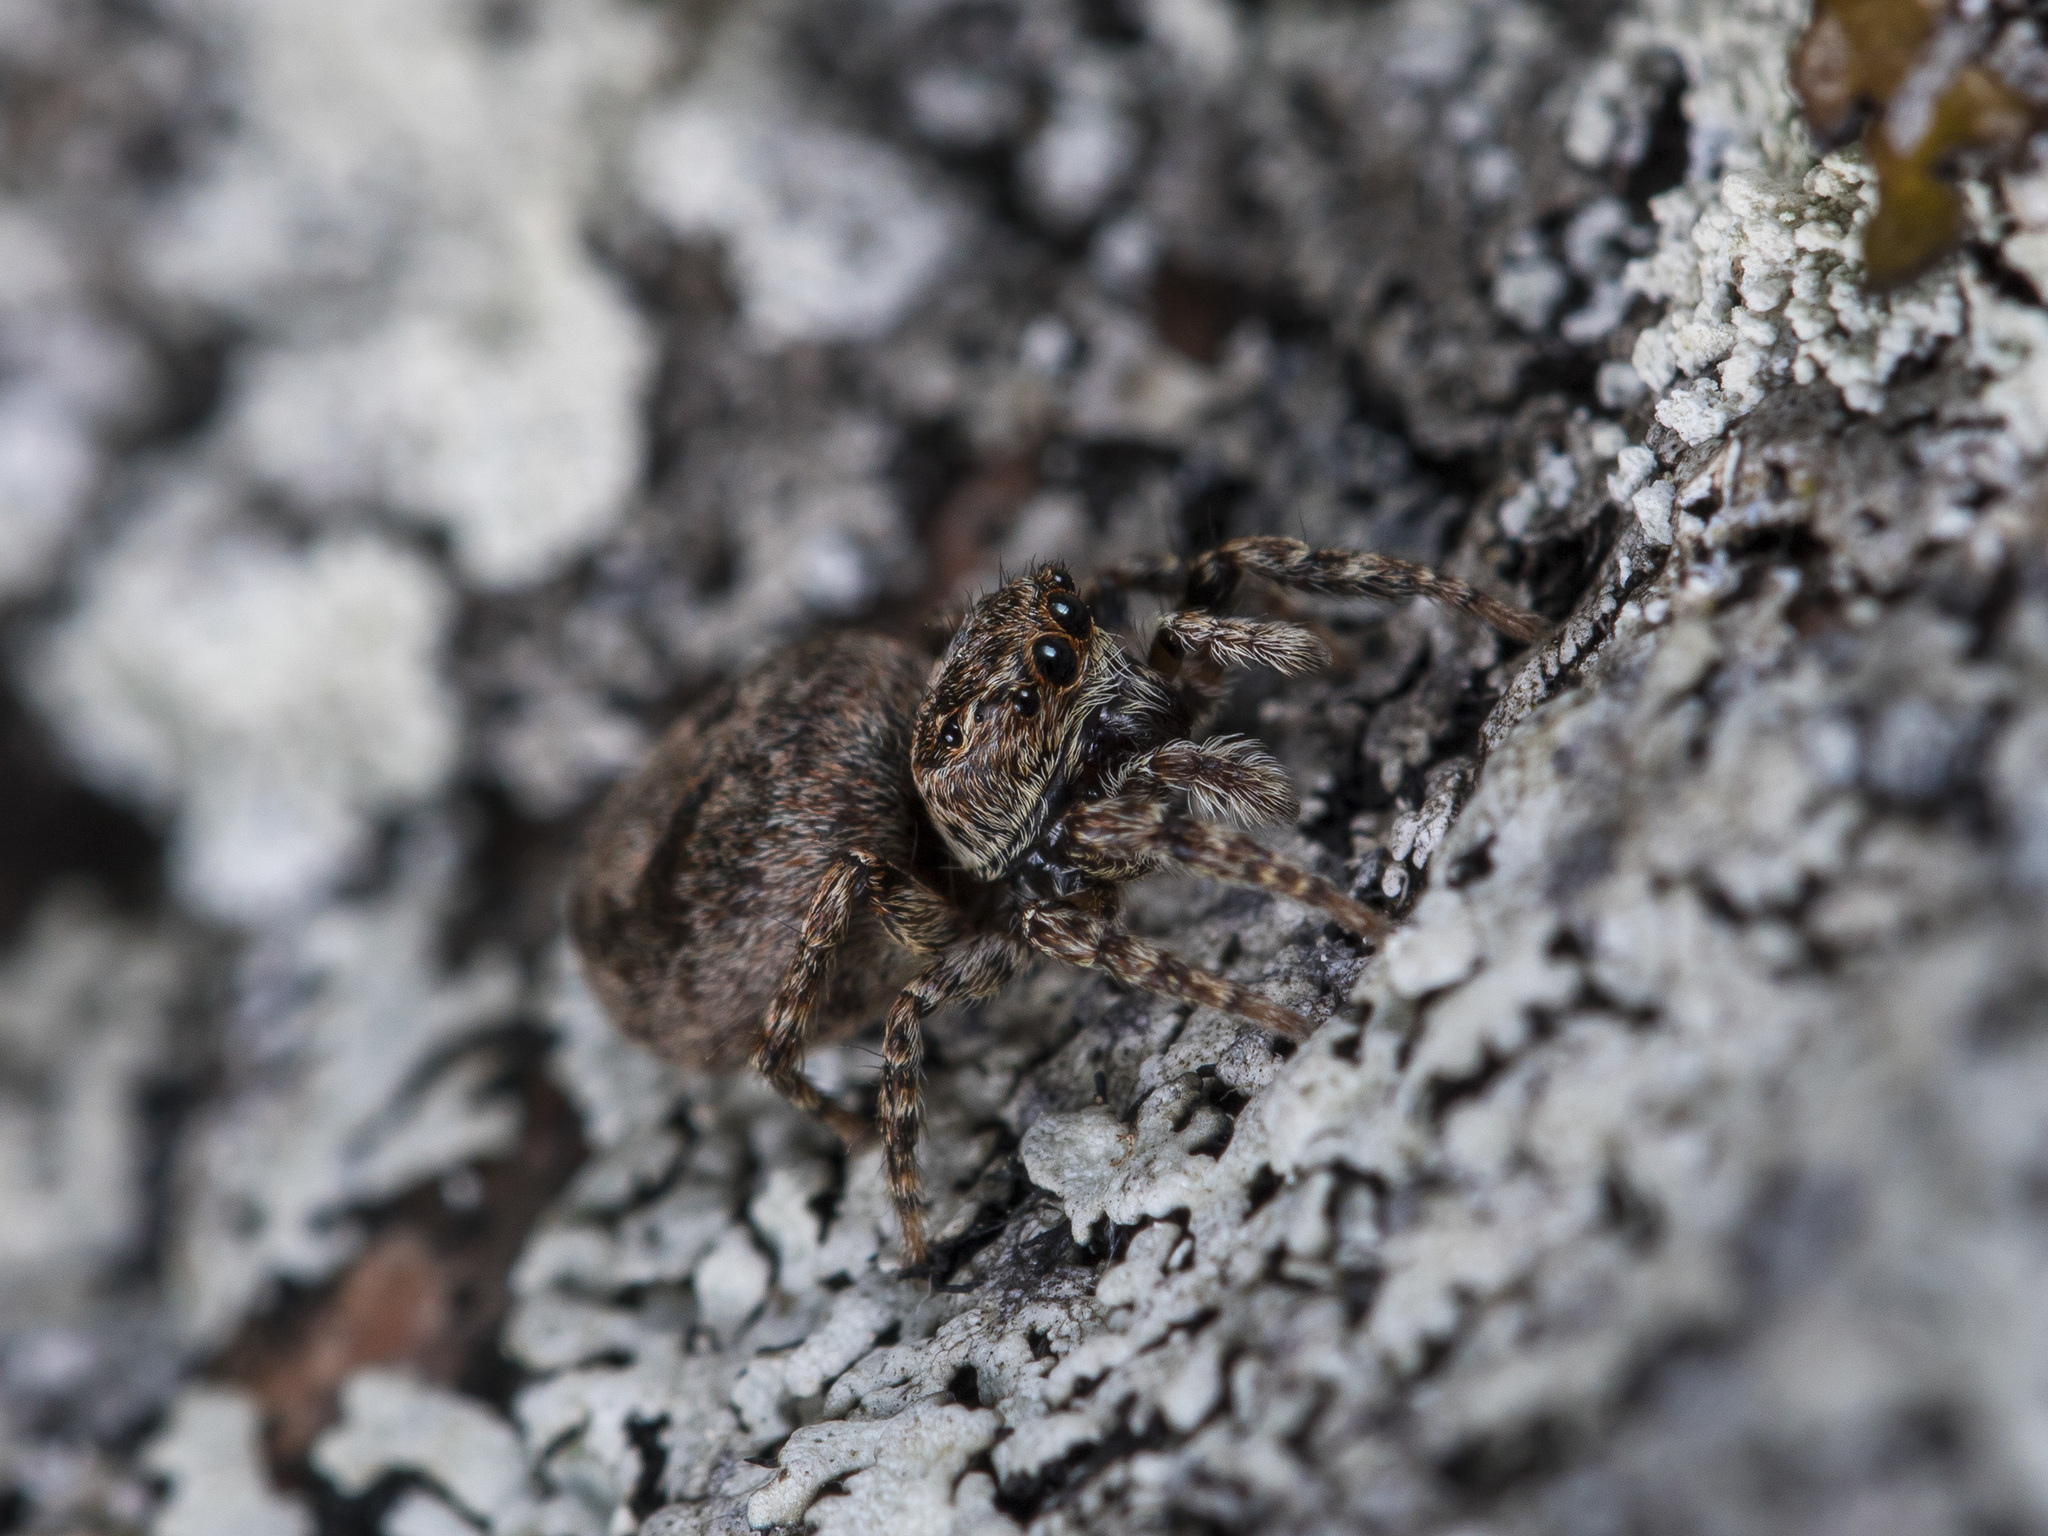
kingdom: Animalia
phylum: Arthropoda
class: Arachnida
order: Araneae
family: Salticidae
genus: Attulus
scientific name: Attulus monstrabilis
